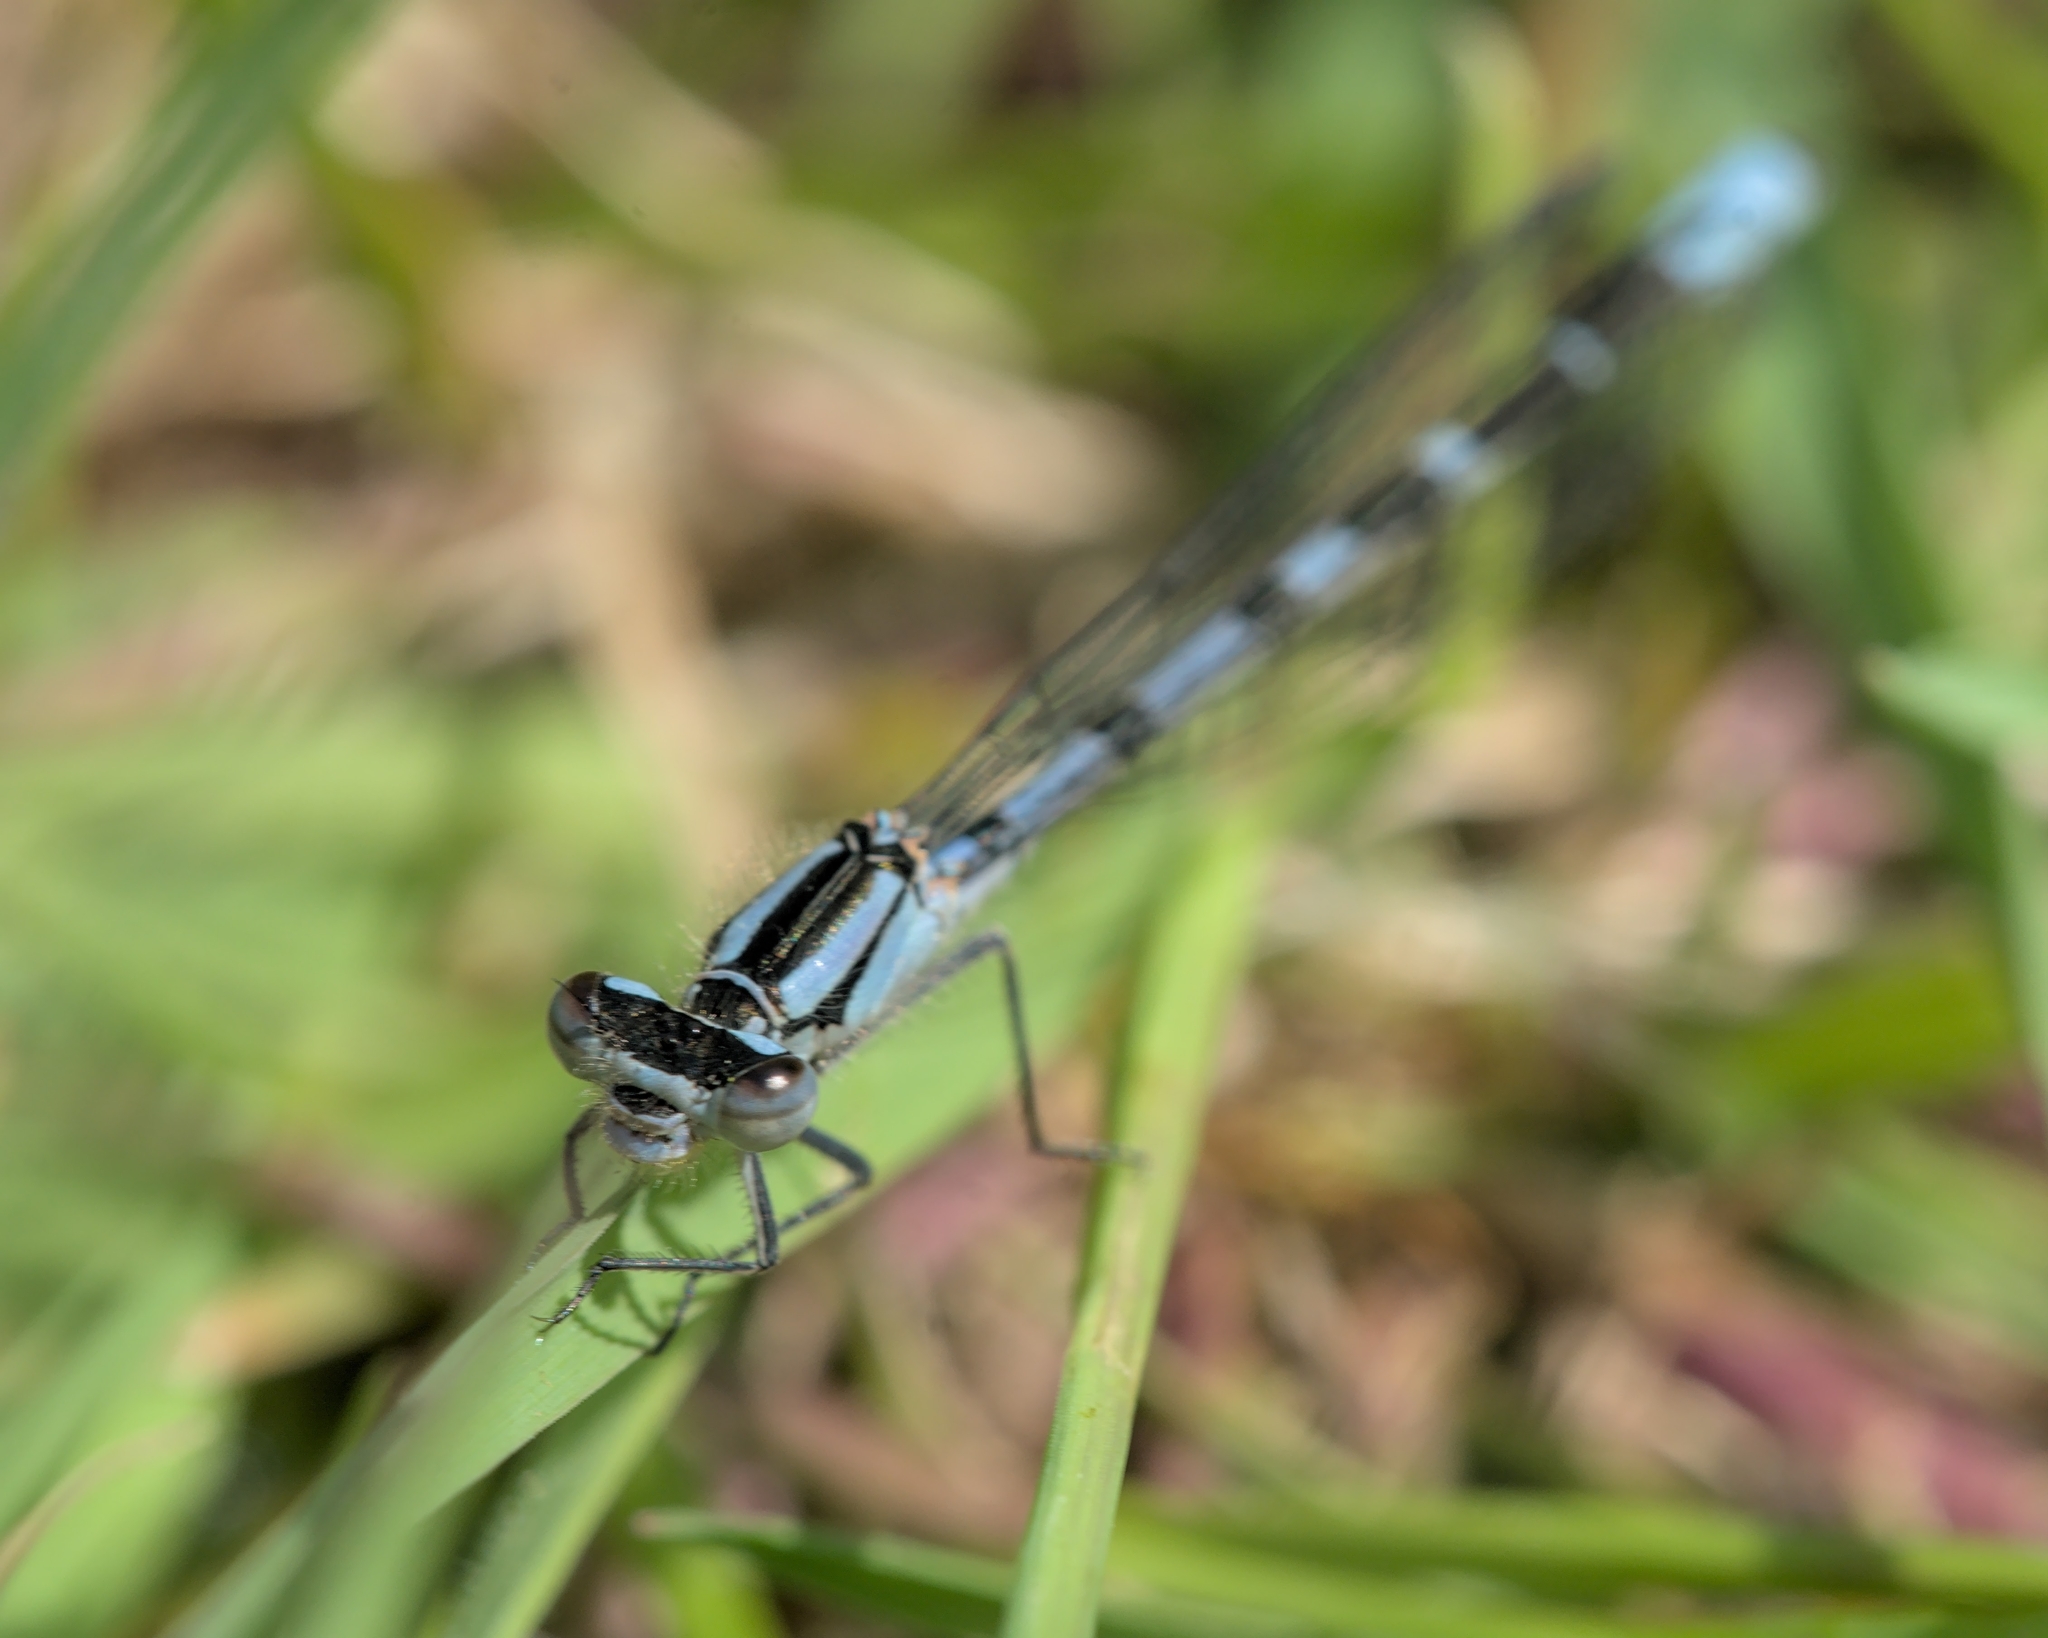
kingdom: Animalia
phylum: Arthropoda
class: Insecta
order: Odonata
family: Coenagrionidae
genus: Enallagma
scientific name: Enallagma cyathigerum
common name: Common blue damselfly
